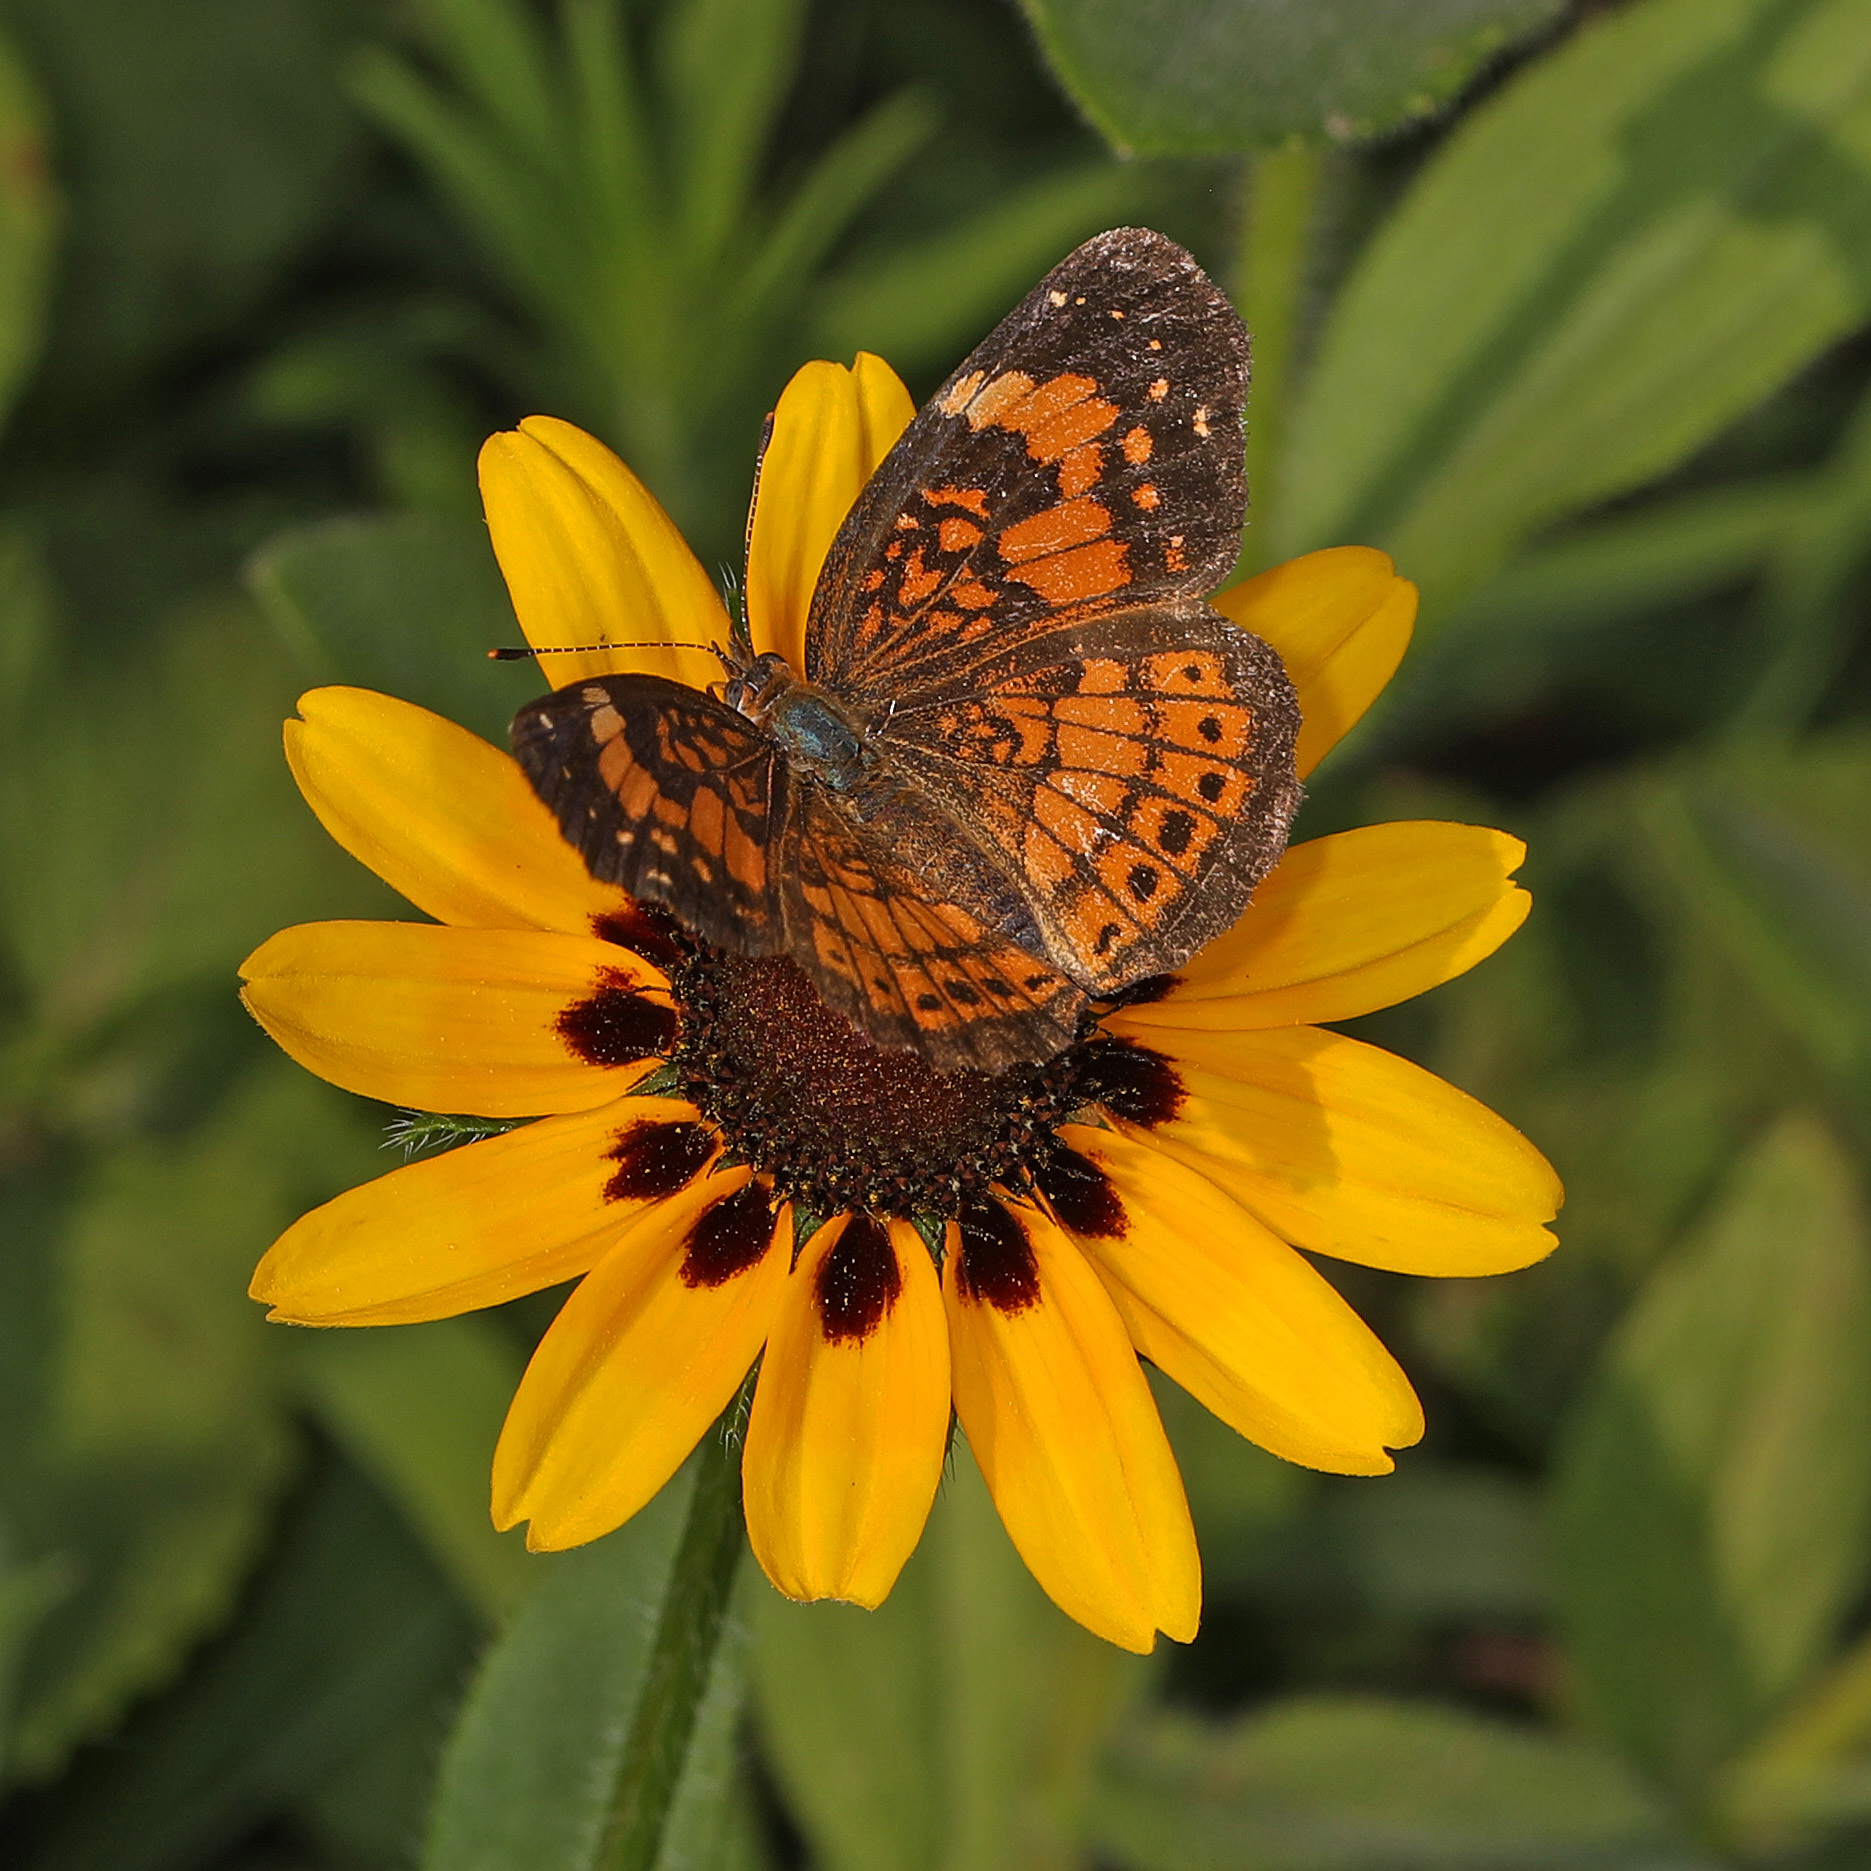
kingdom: Animalia
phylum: Arthropoda
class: Insecta
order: Lepidoptera
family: Nymphalidae
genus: Chlosyne
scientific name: Chlosyne nycteis
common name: Silvery checkerspot
